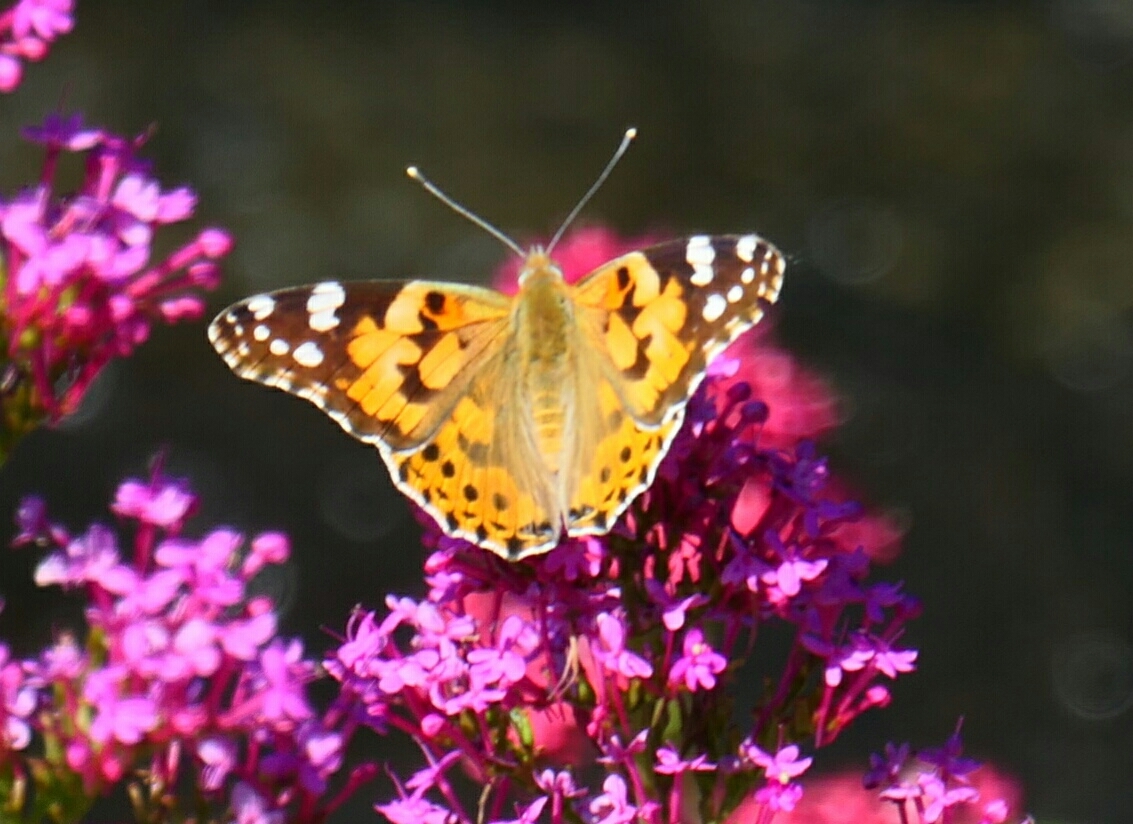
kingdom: Animalia
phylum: Arthropoda
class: Insecta
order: Lepidoptera
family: Nymphalidae
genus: Vanessa
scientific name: Vanessa cardui
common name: Painted lady
